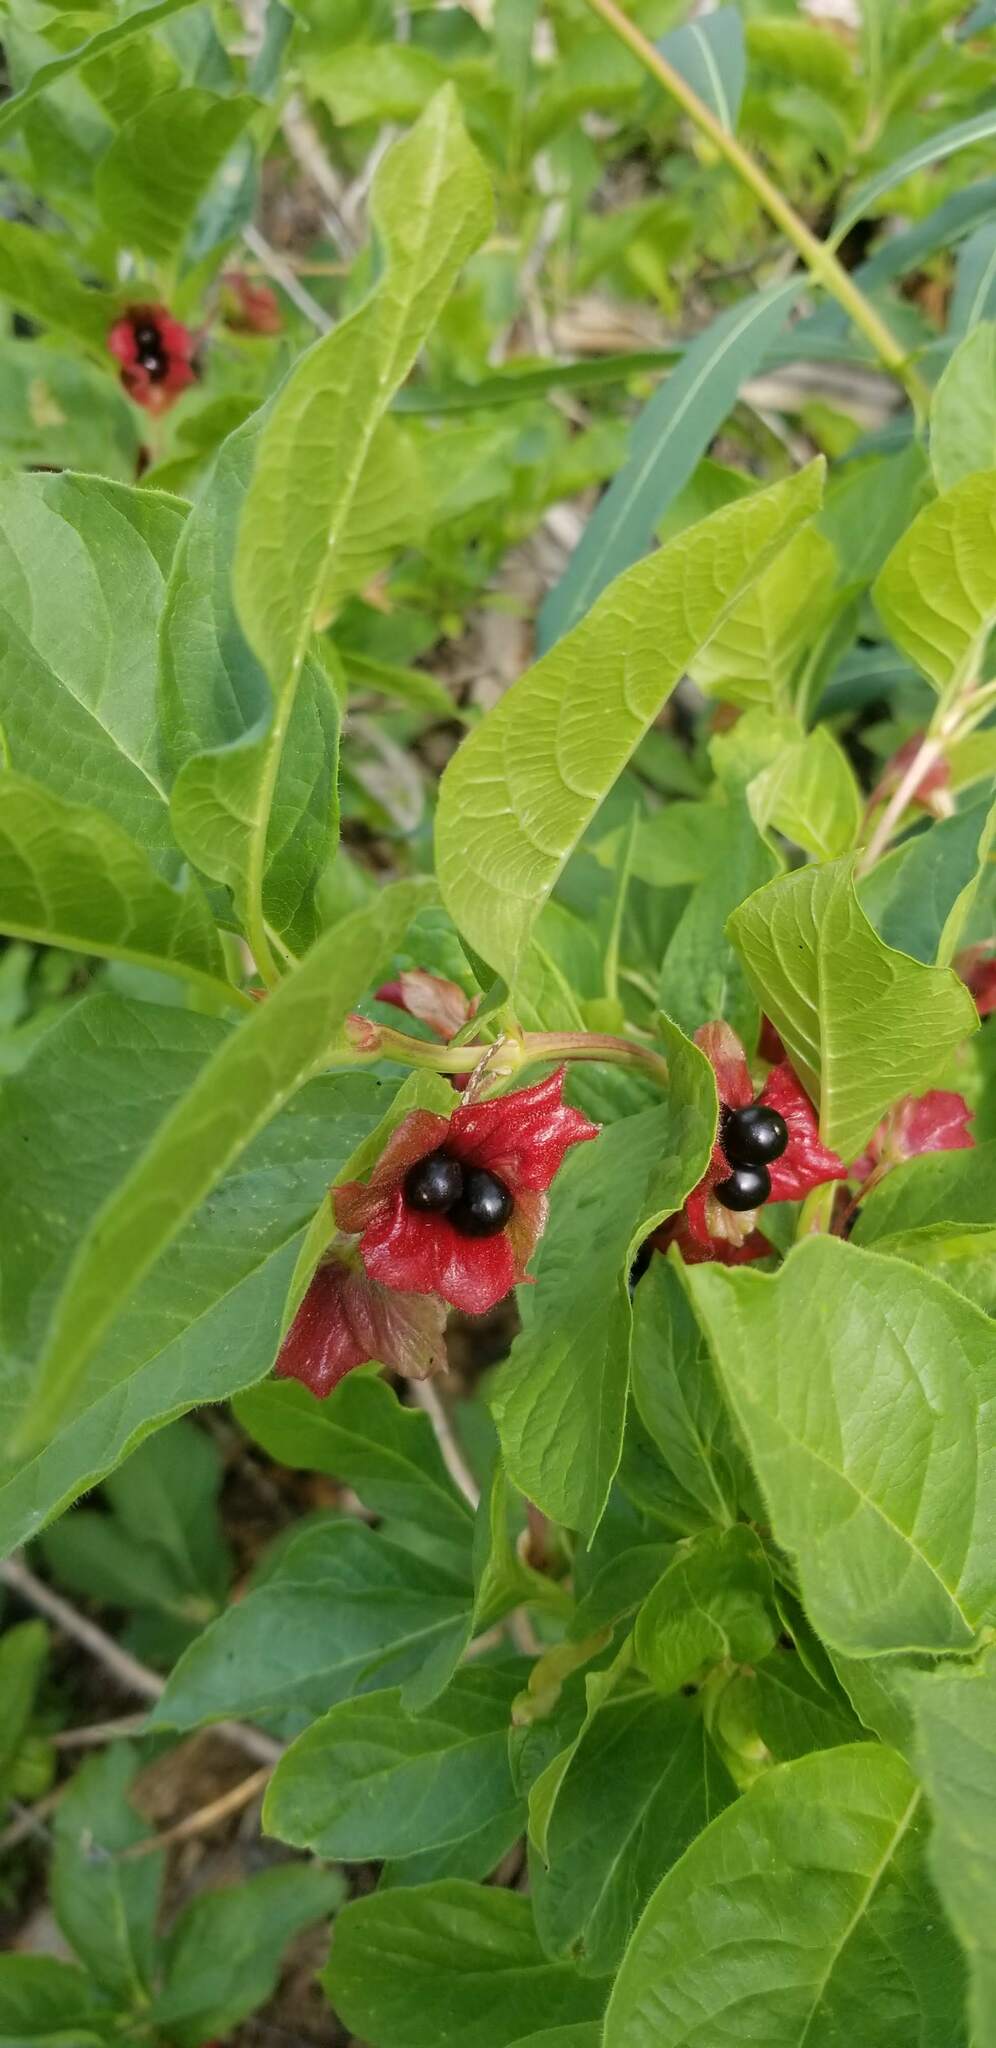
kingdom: Plantae
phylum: Tracheophyta
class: Magnoliopsida
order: Dipsacales
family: Caprifoliaceae
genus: Lonicera
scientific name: Lonicera involucrata
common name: Californian honeysuckle
